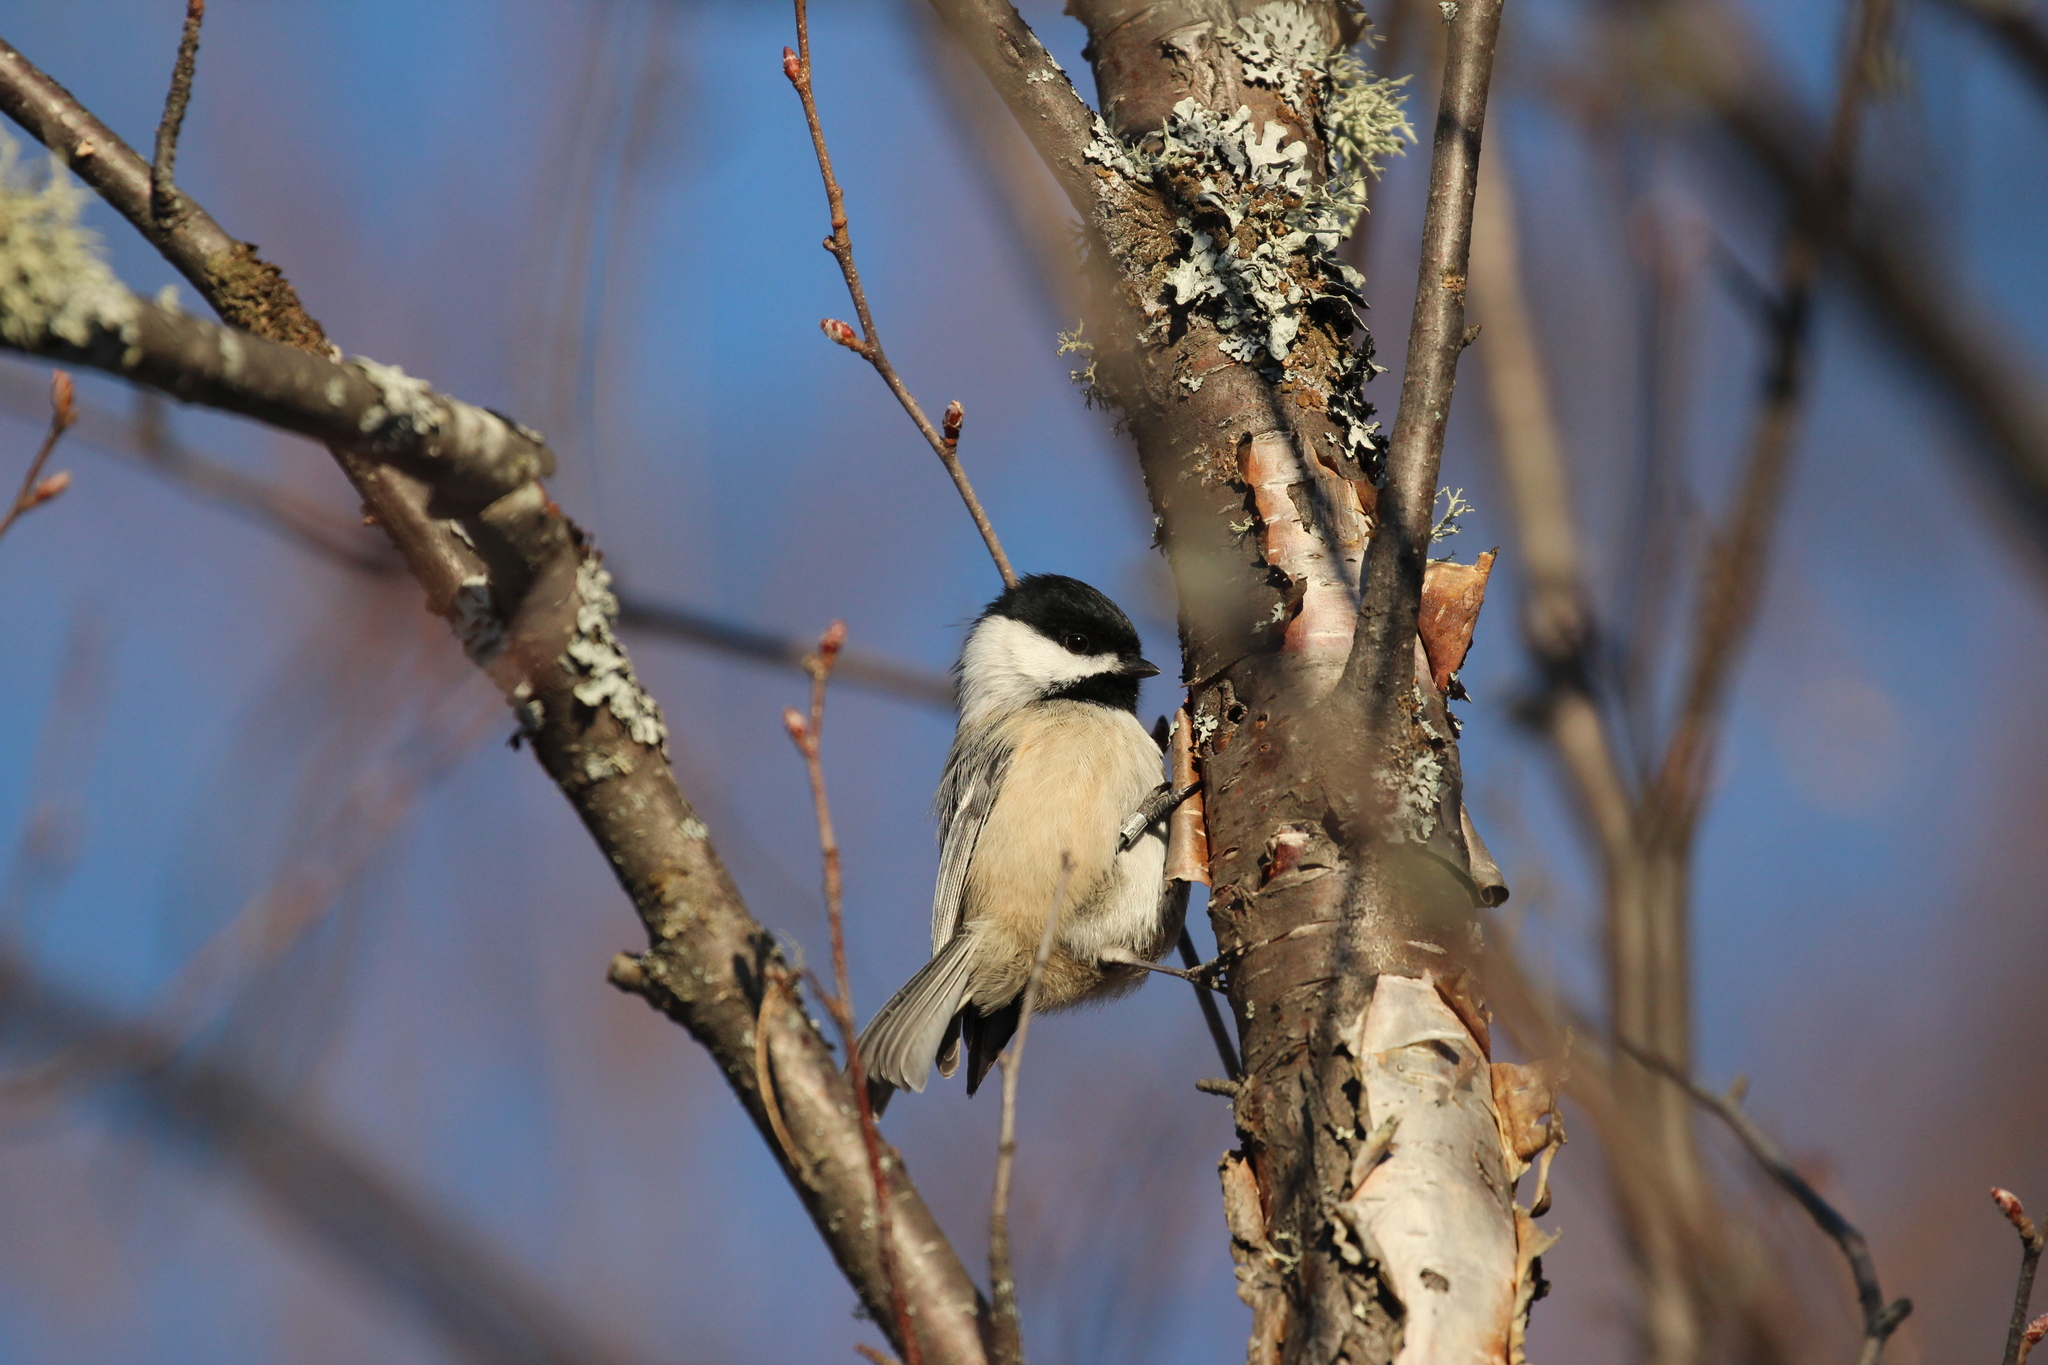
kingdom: Animalia
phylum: Chordata
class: Aves
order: Passeriformes
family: Paridae
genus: Poecile
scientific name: Poecile atricapillus
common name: Black-capped chickadee
